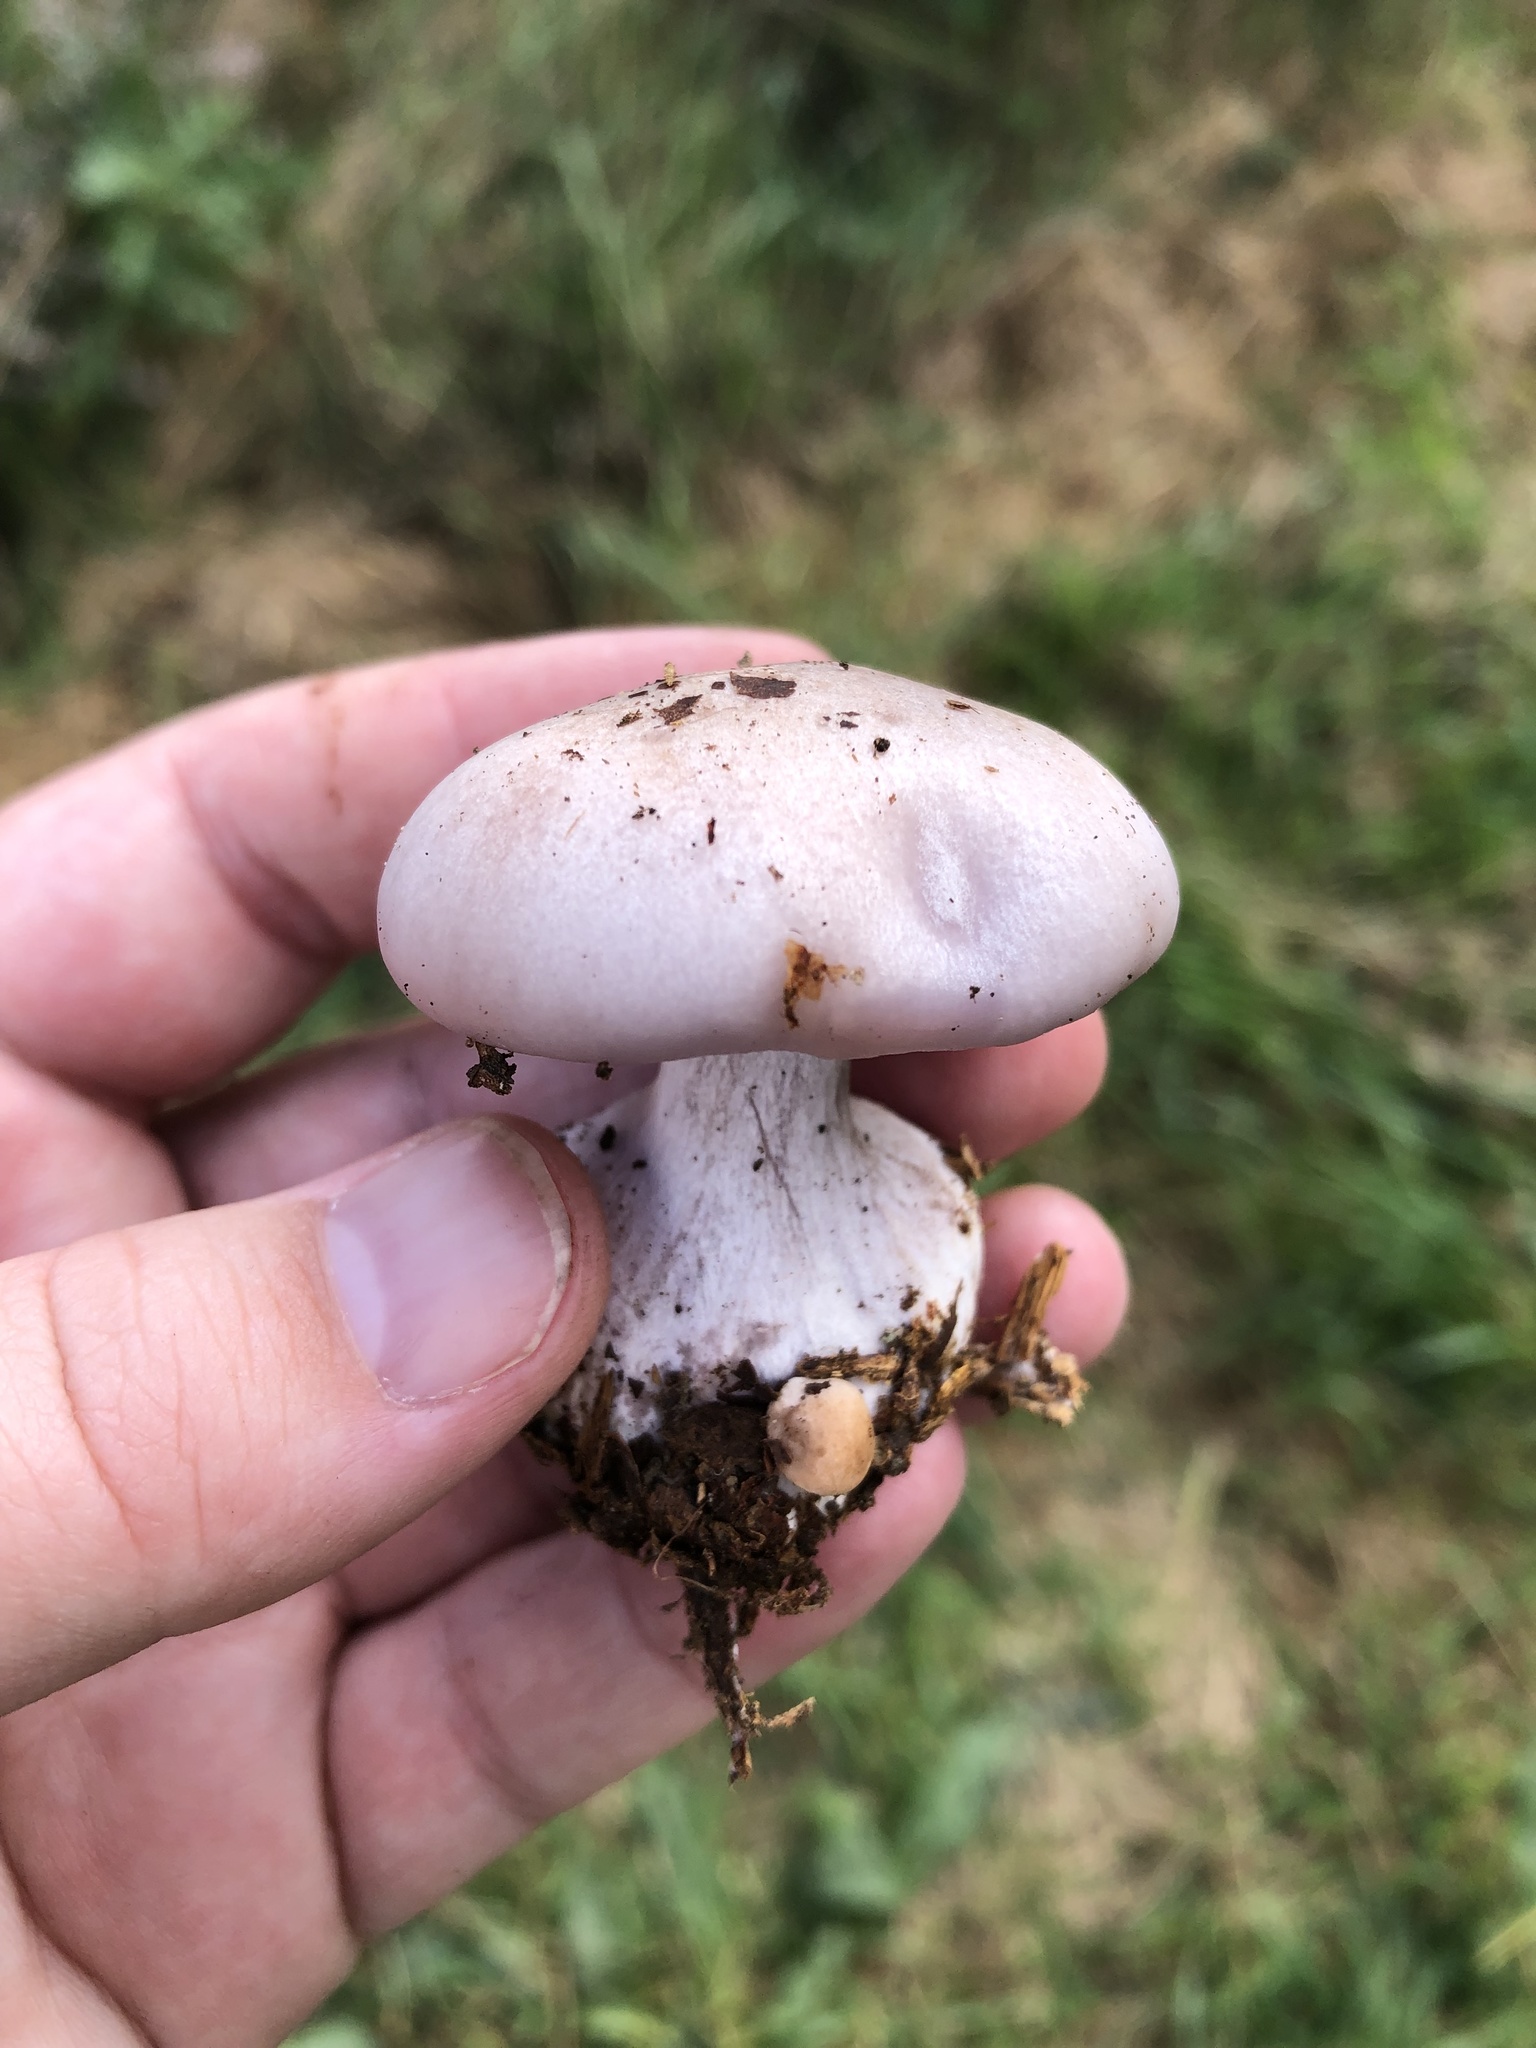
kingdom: Fungi
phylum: Basidiomycota
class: Agaricomycetes
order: Agaricales
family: Tricholomataceae
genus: Collybia
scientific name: Collybia
